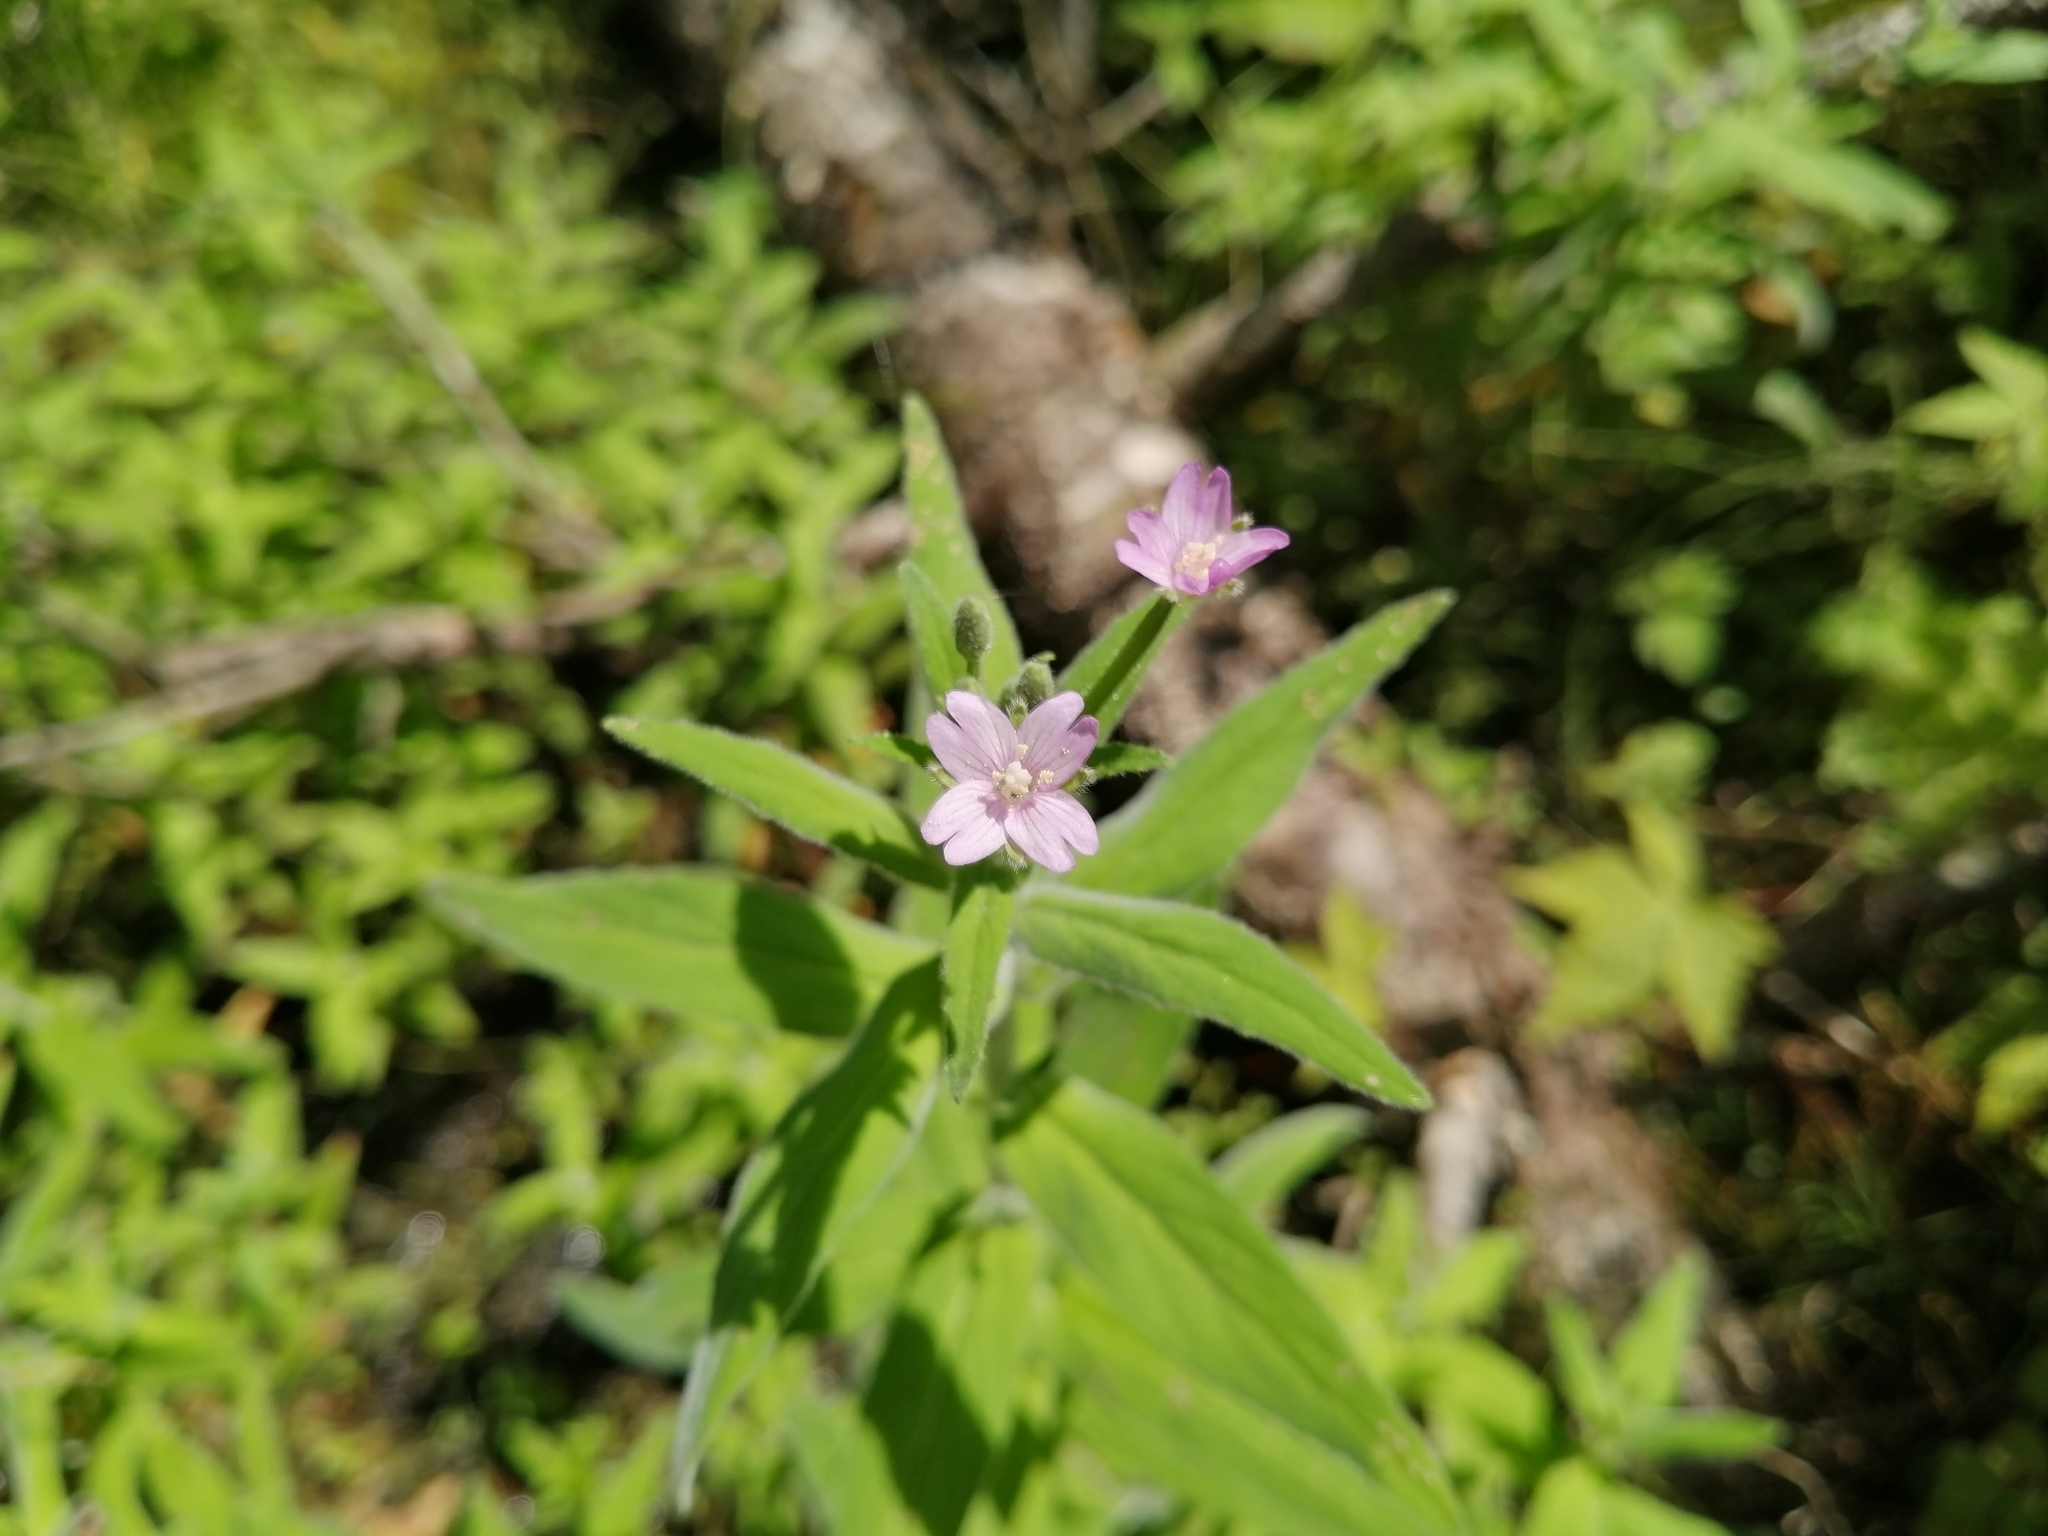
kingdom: Plantae
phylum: Tracheophyta
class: Magnoliopsida
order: Myrtales
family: Onagraceae
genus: Epilobium
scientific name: Epilobium parviflorum
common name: Hoary willowherb
